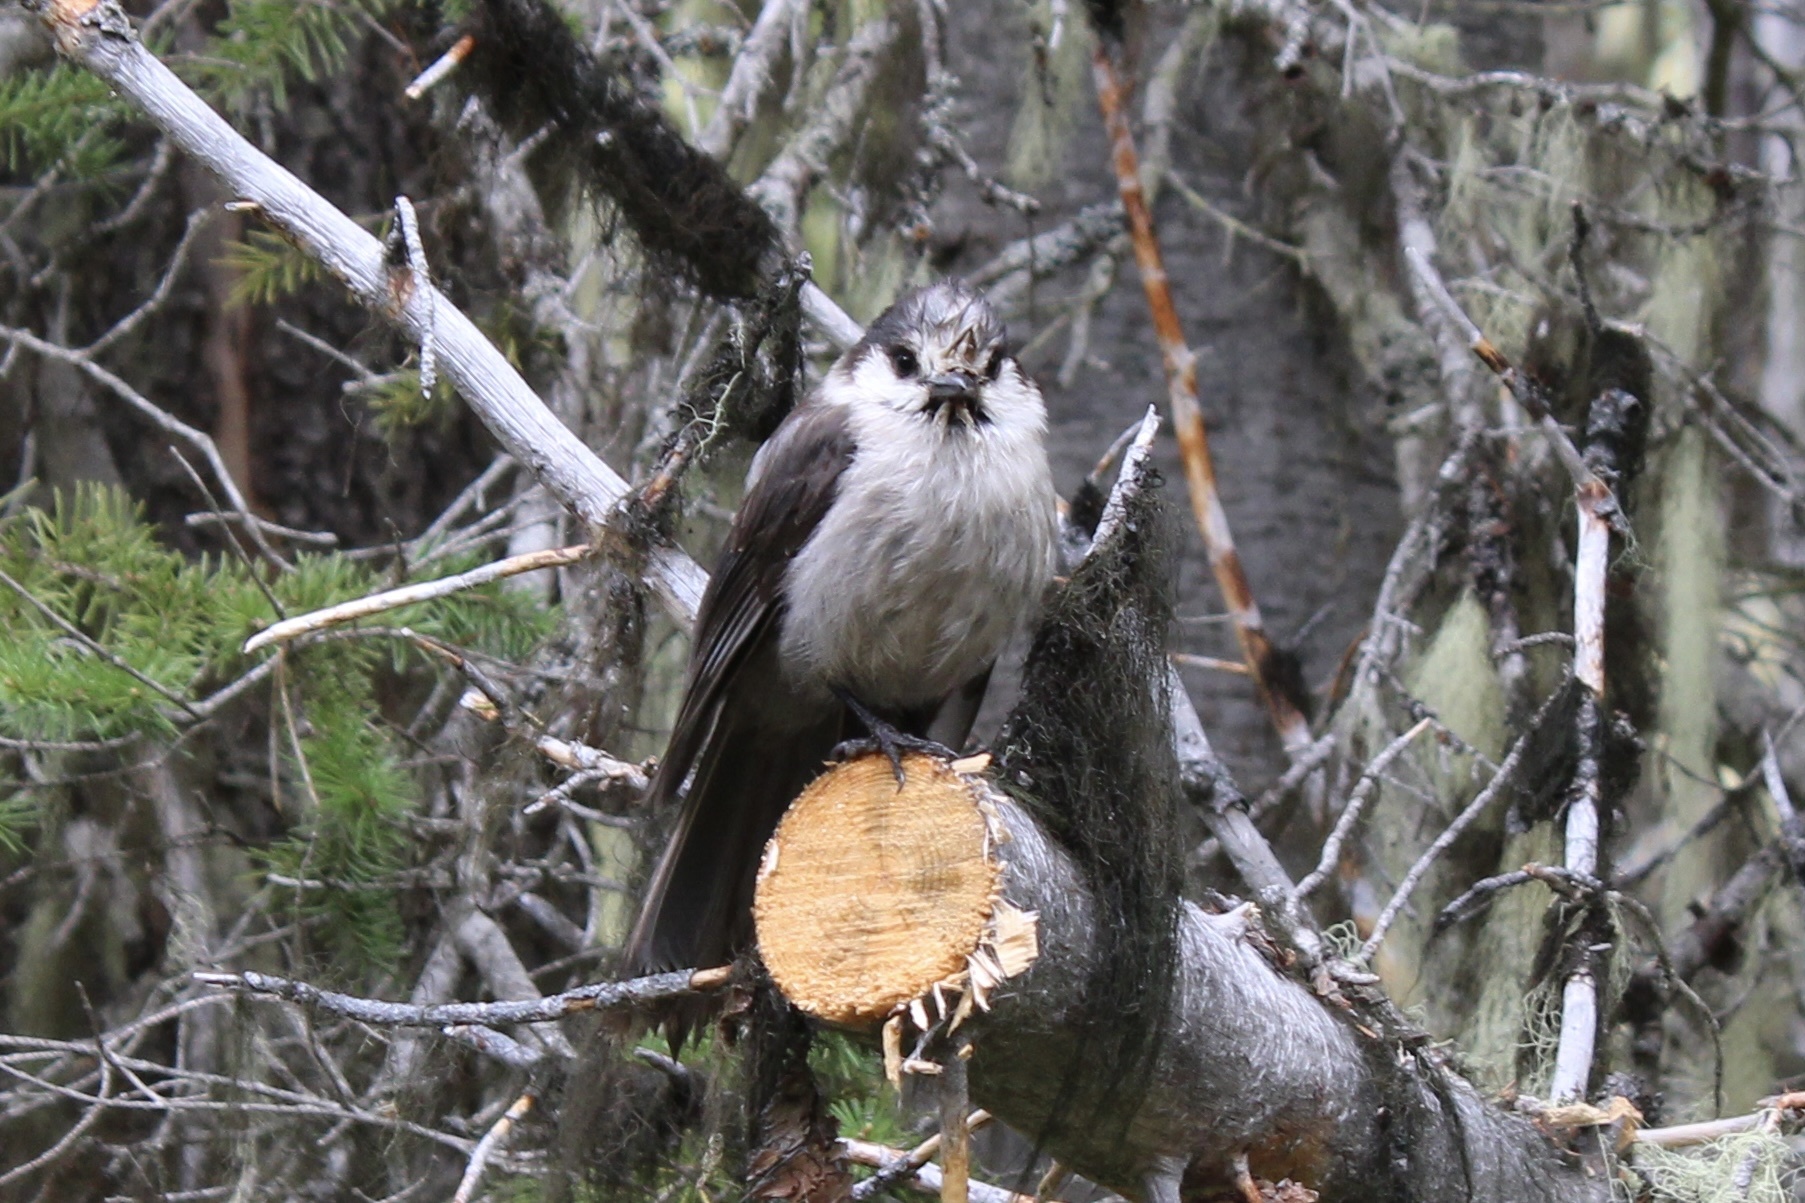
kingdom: Animalia
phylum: Chordata
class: Aves
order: Passeriformes
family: Corvidae
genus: Perisoreus
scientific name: Perisoreus canadensis
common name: Gray jay
